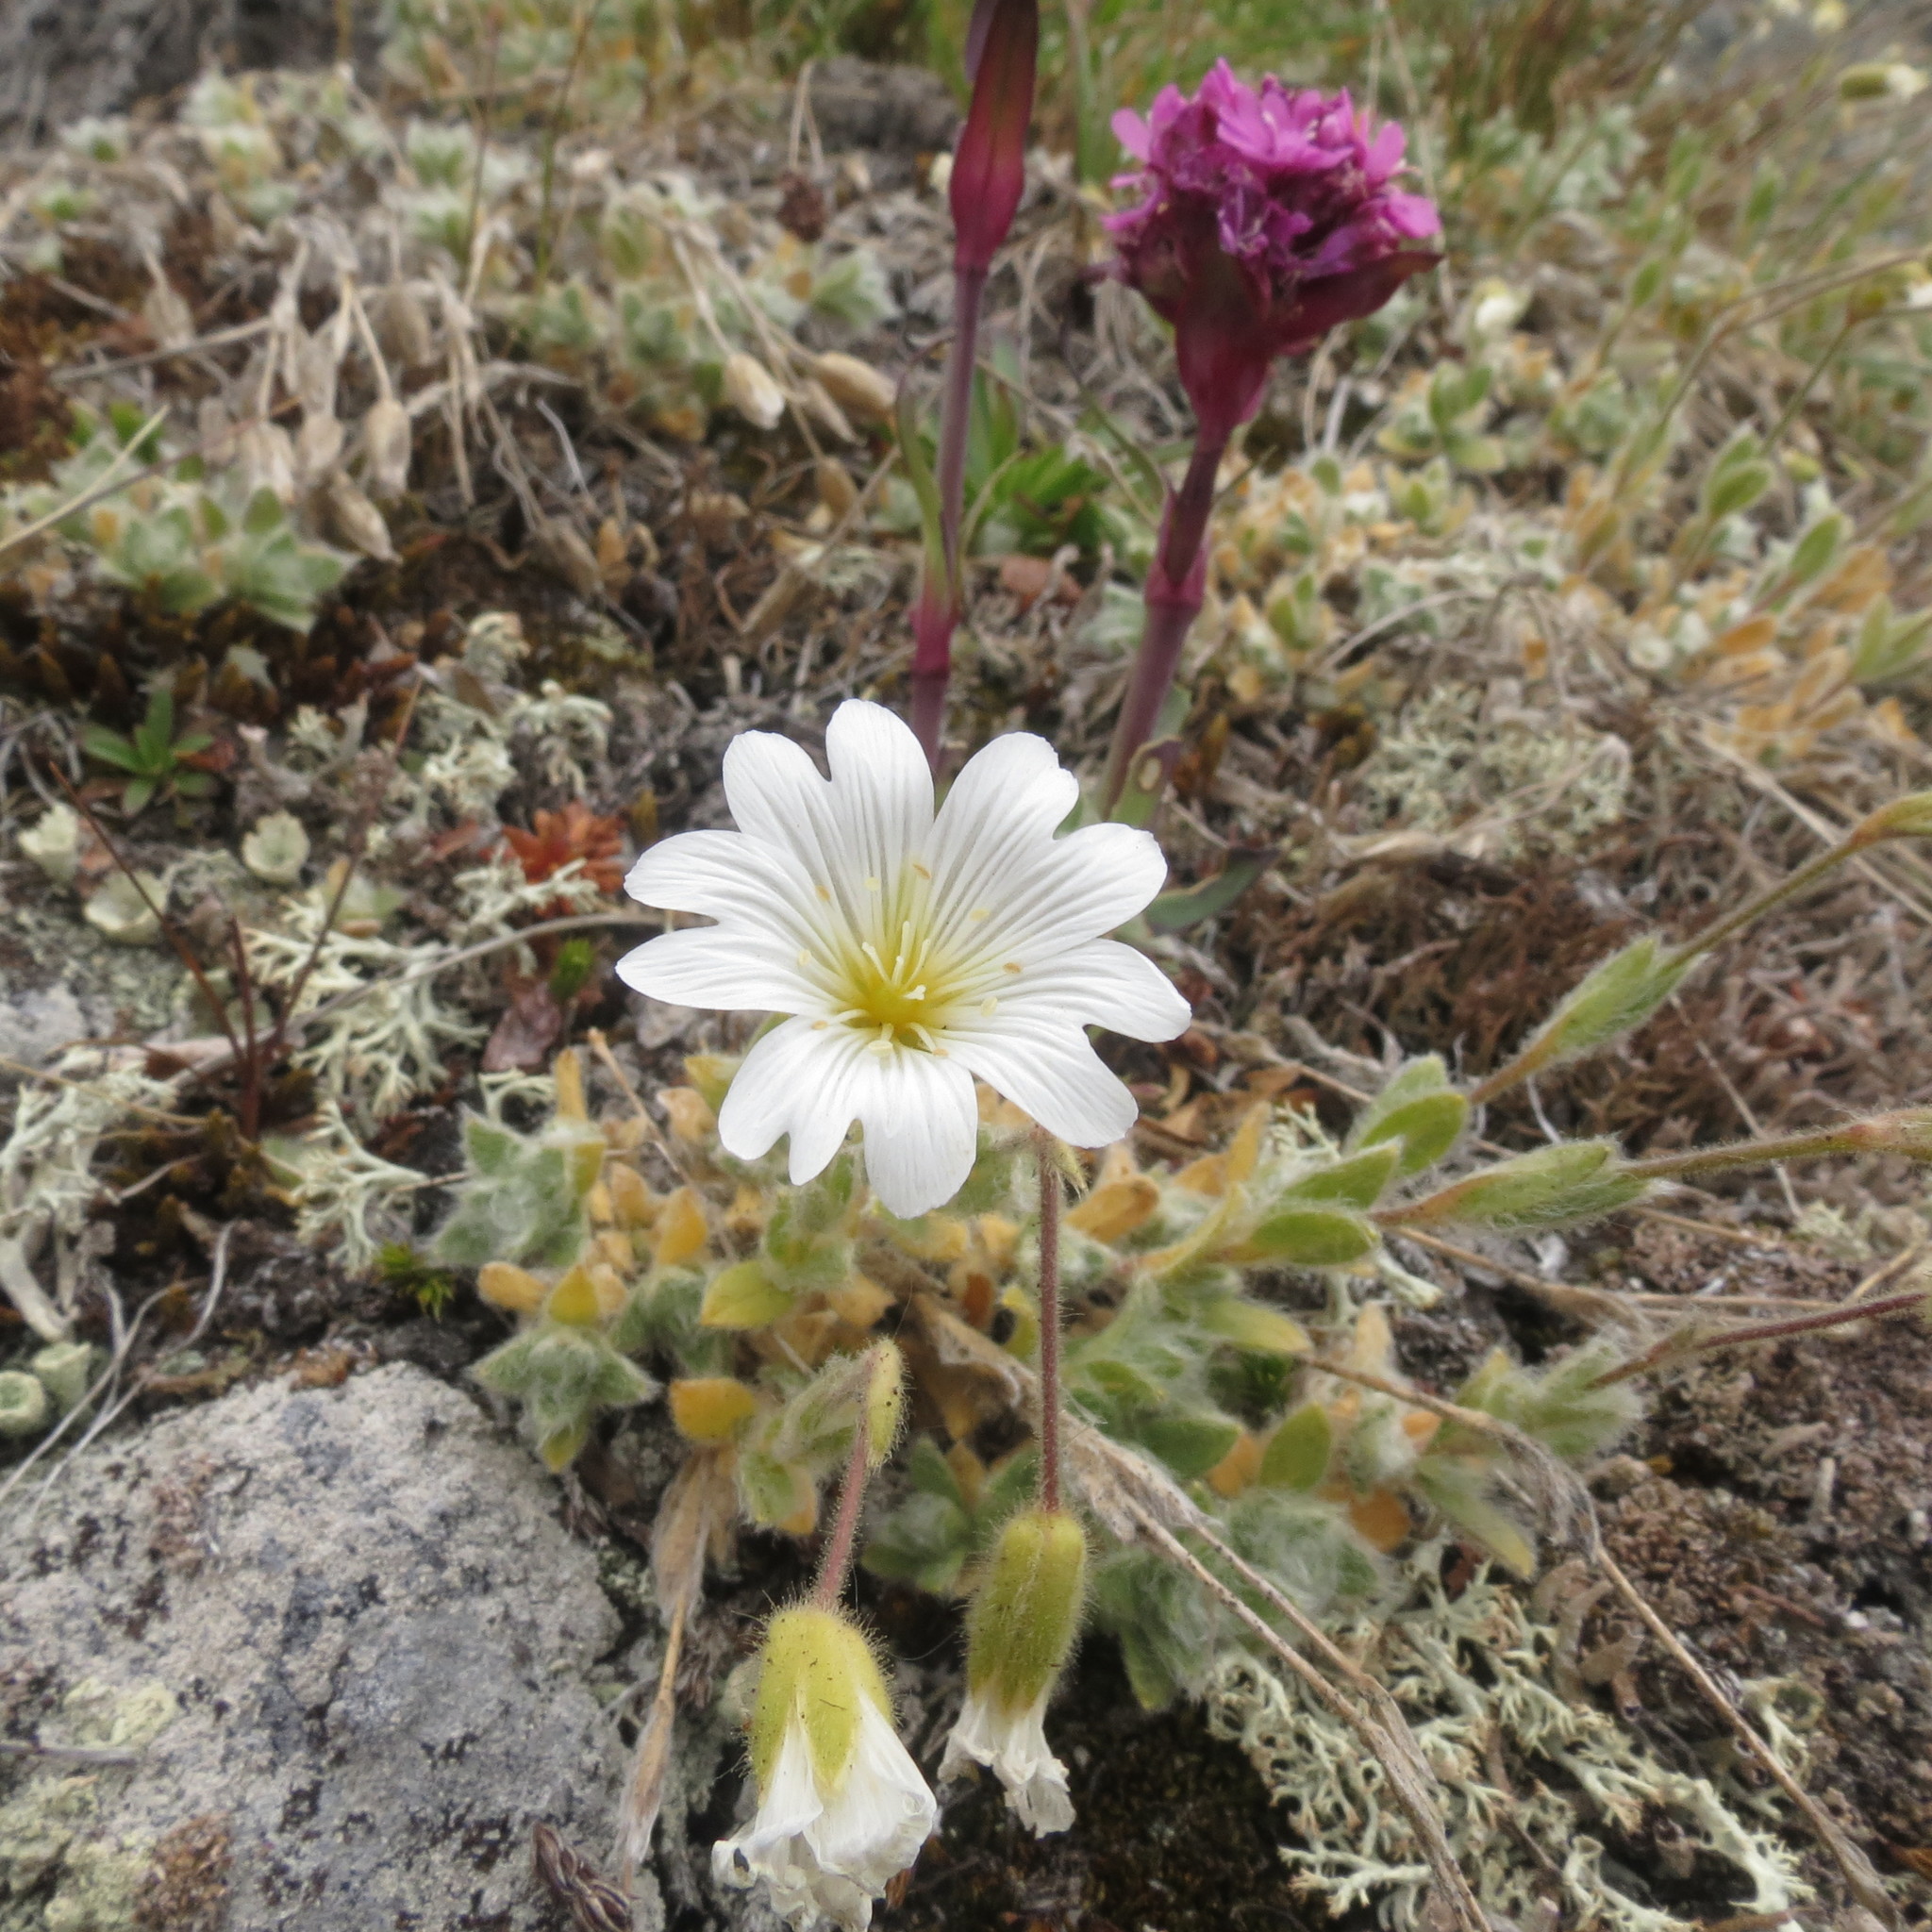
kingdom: Plantae
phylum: Tracheophyta
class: Magnoliopsida
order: Caryophyllales
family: Caryophyllaceae
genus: Cerastium
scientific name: Cerastium arvense
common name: Field mouse-ear
